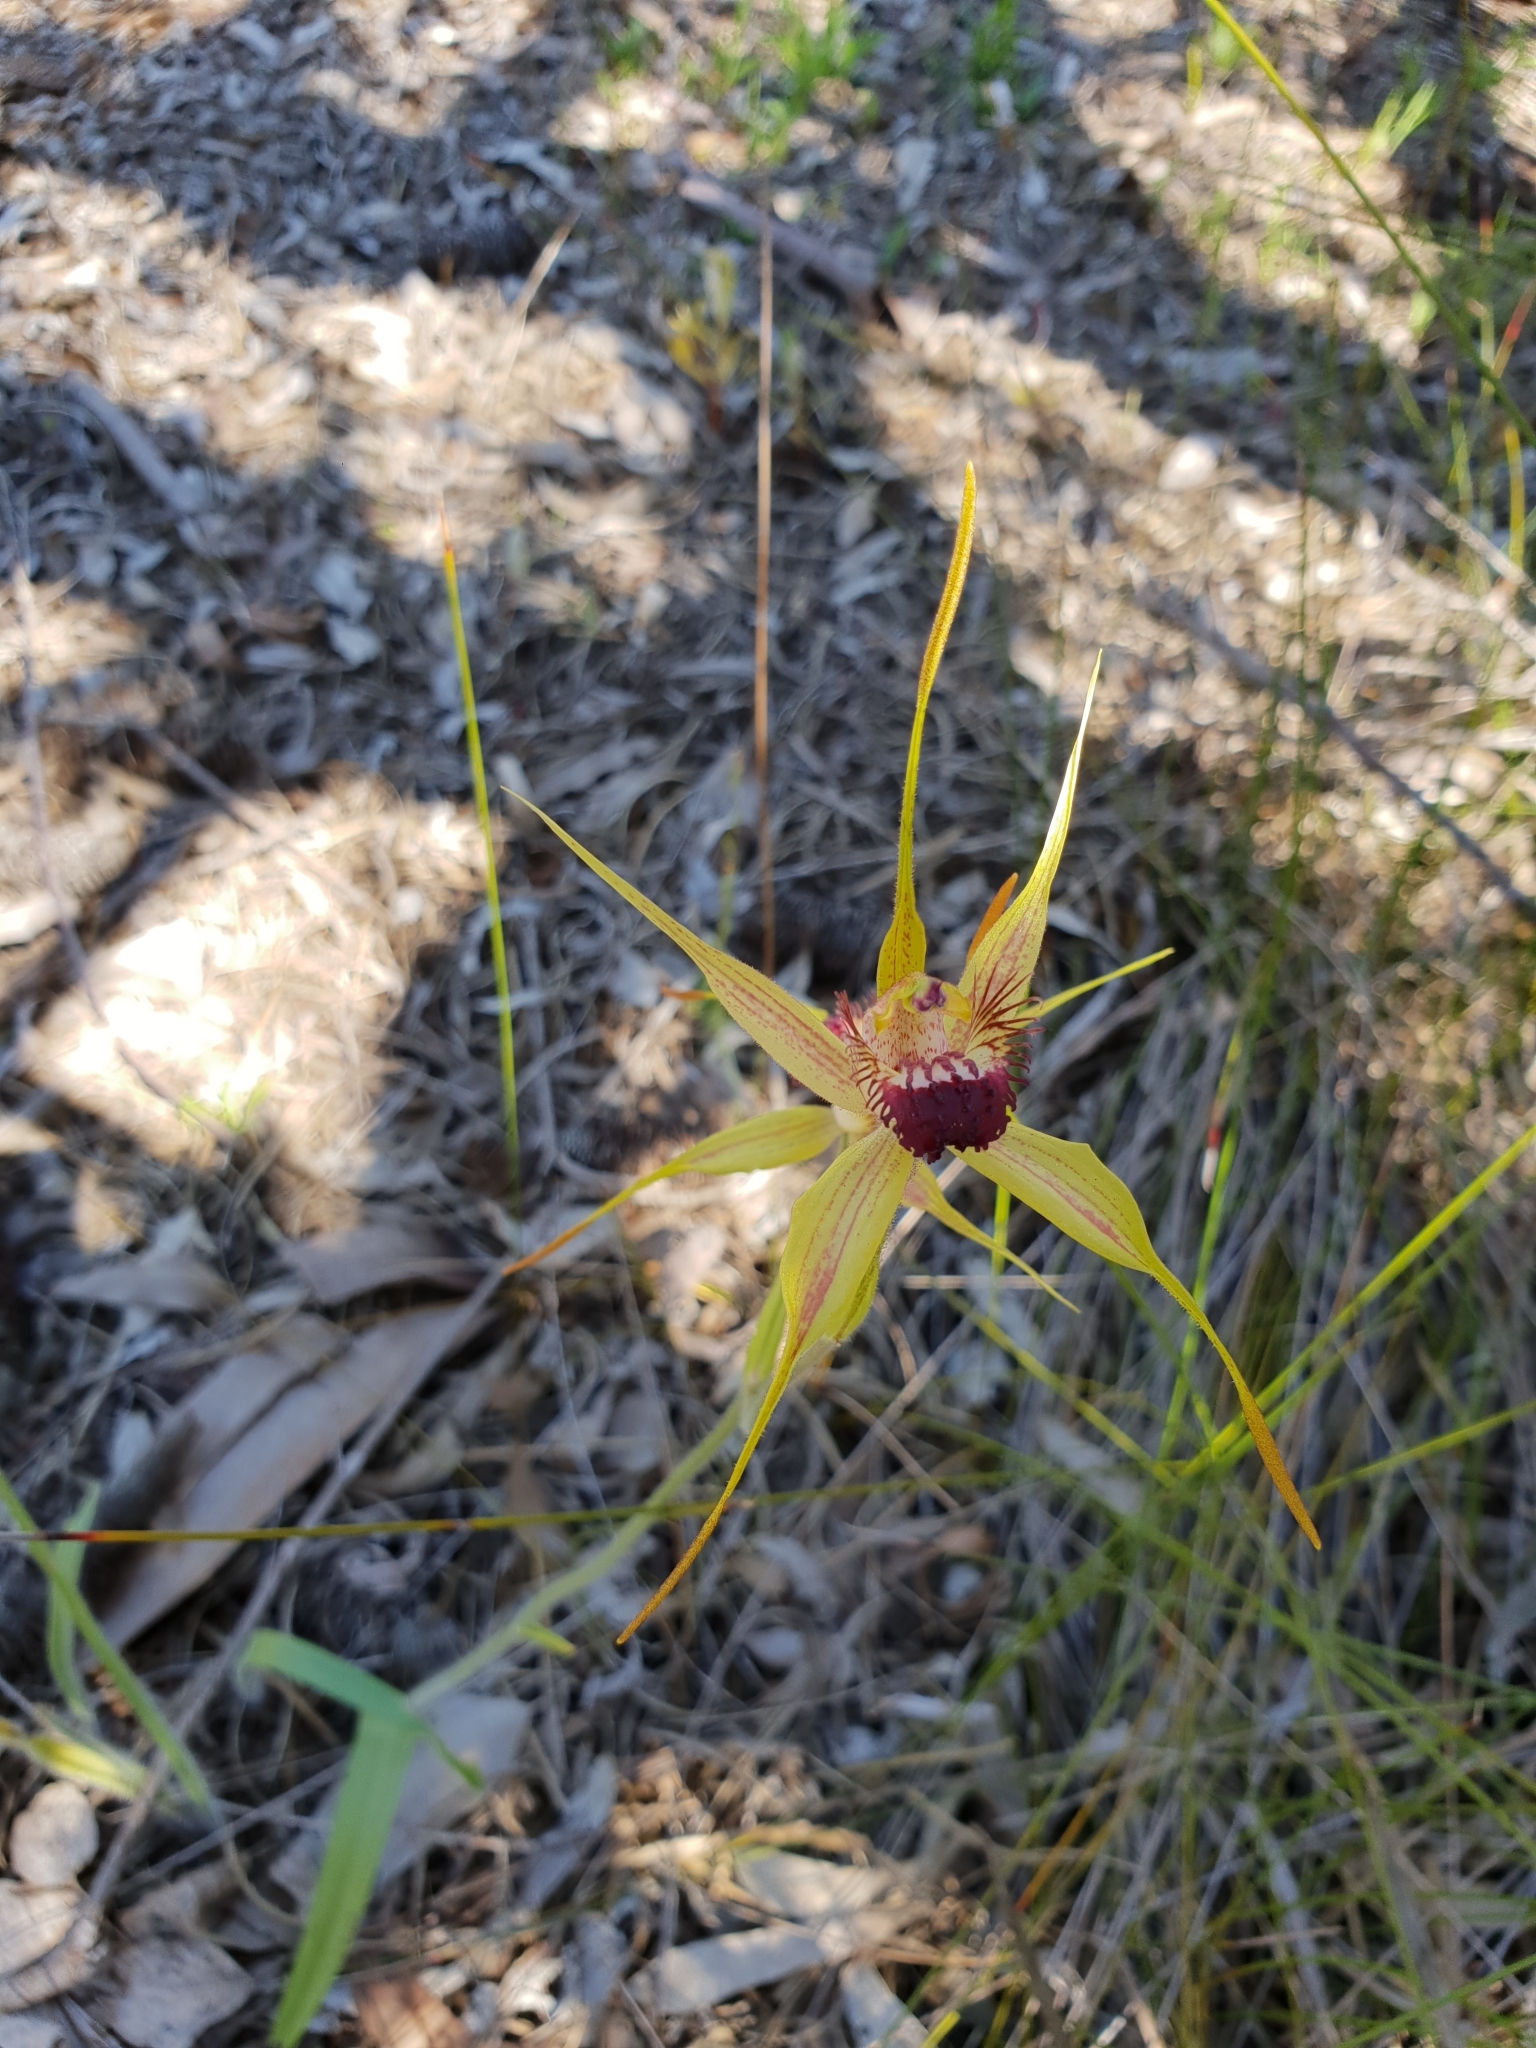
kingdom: Plantae
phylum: Tracheophyta
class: Liliopsida
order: Asparagales
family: Orchidaceae
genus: Caladenia
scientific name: Caladenia pectinata
